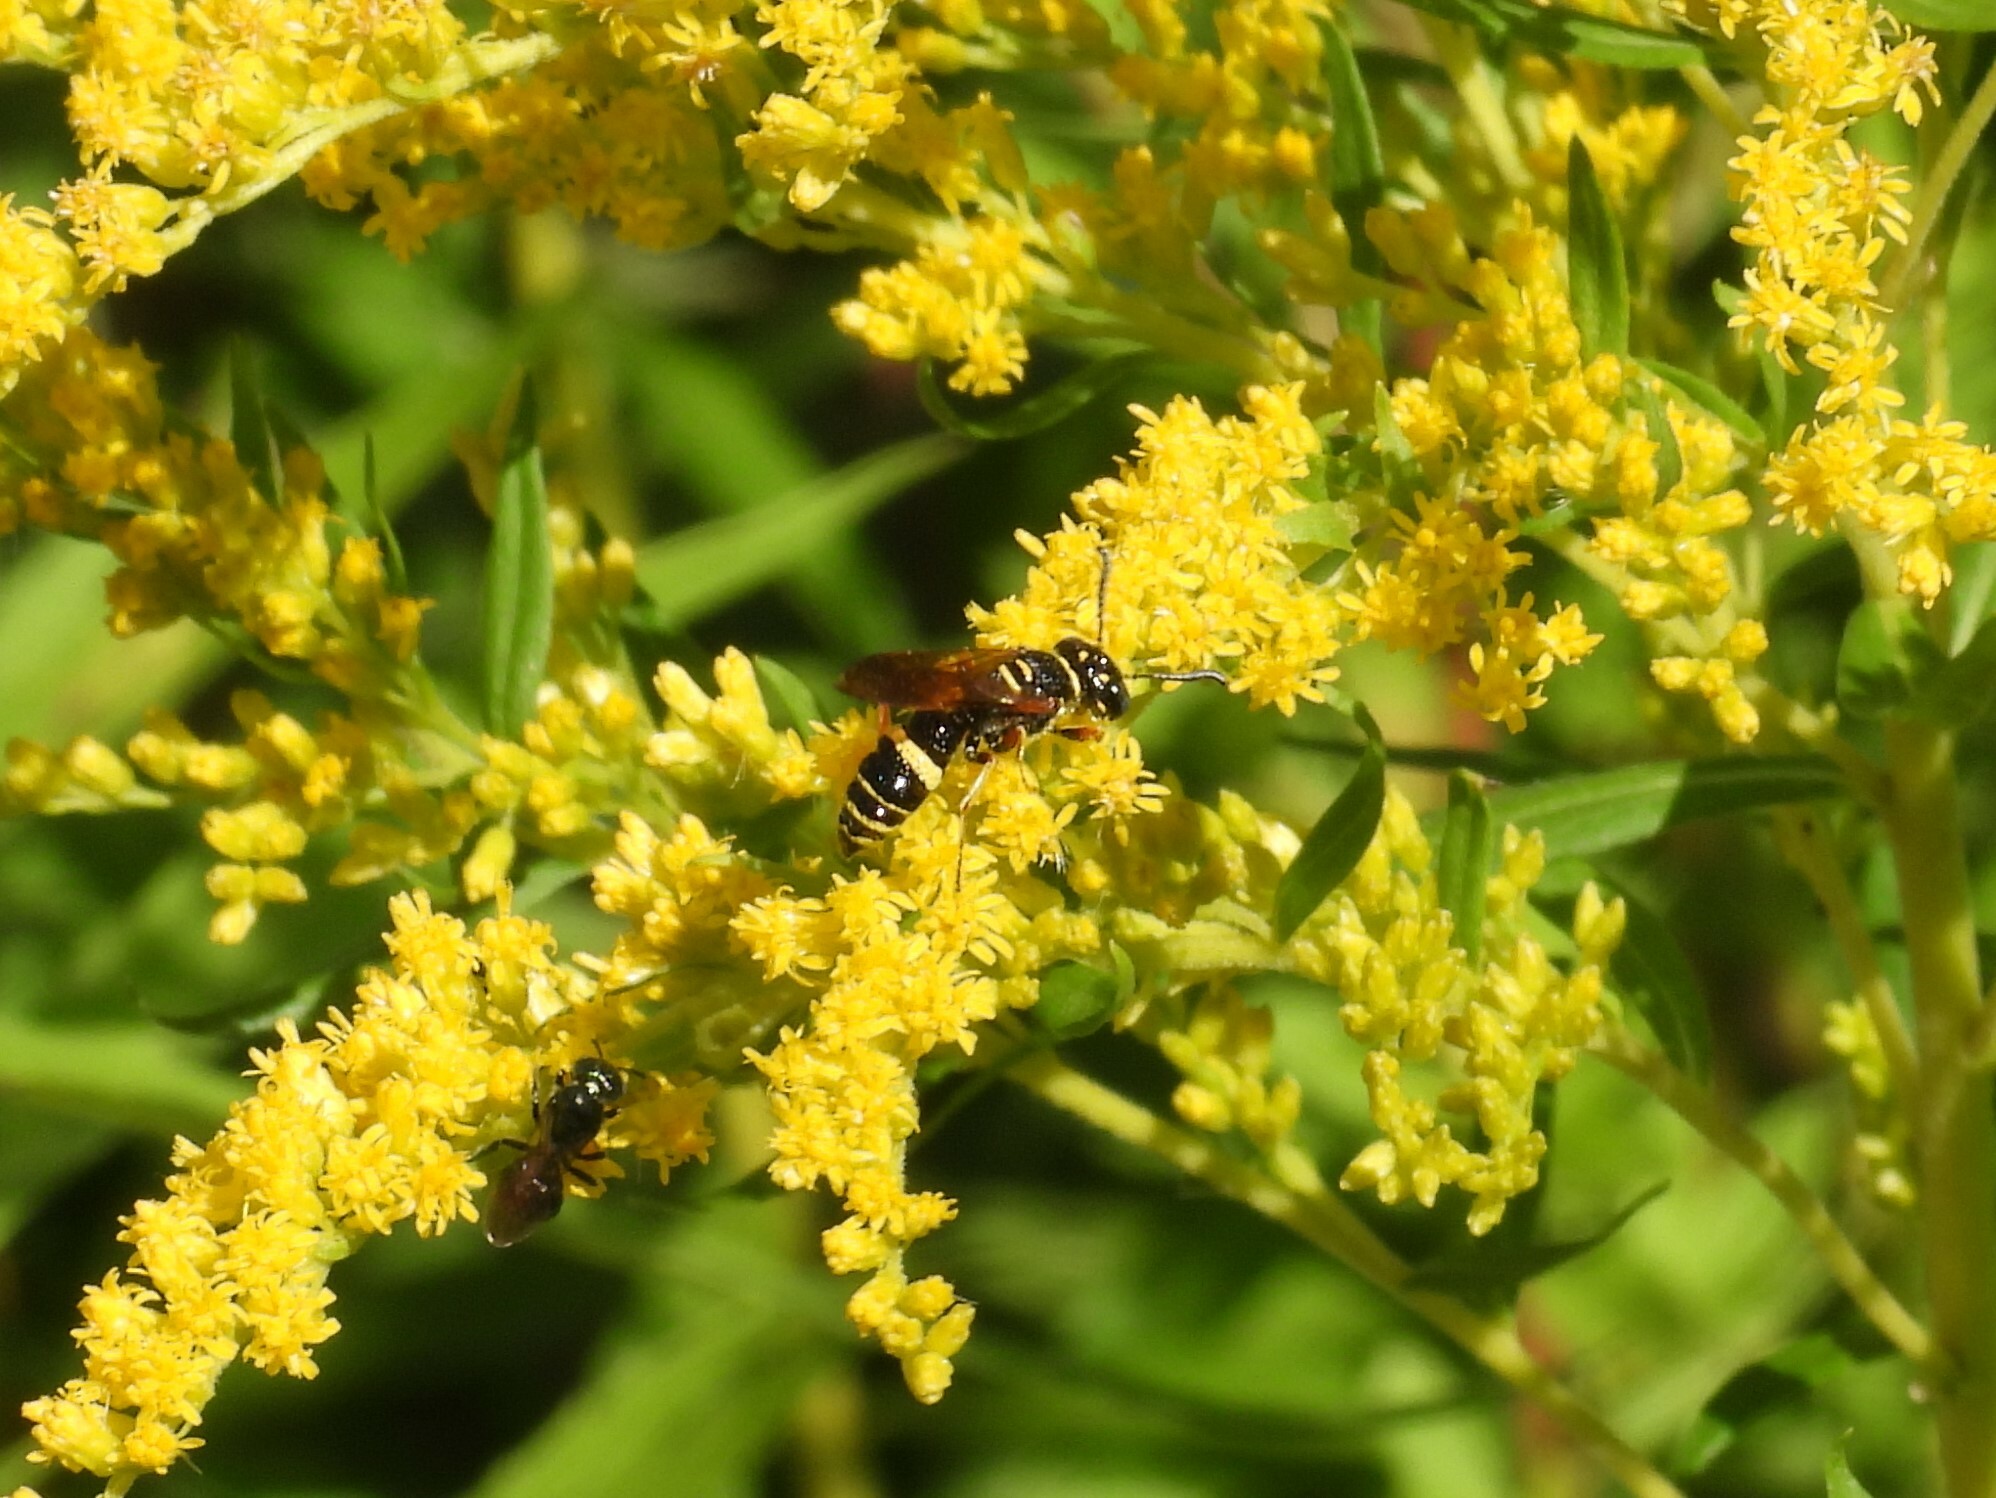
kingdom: Animalia
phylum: Arthropoda
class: Insecta
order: Hymenoptera
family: Crabronidae
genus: Philanthus
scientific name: Philanthus gibbosus
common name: Humped beewolf
